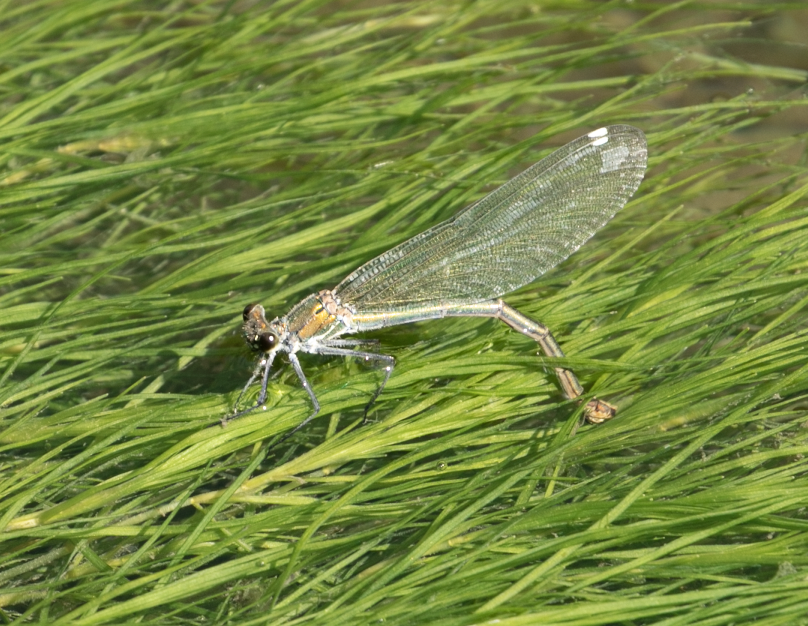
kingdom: Animalia
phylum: Arthropoda
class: Insecta
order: Odonata
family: Calopterygidae
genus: Calopteryx
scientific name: Calopteryx splendens
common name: Banded demoiselle
